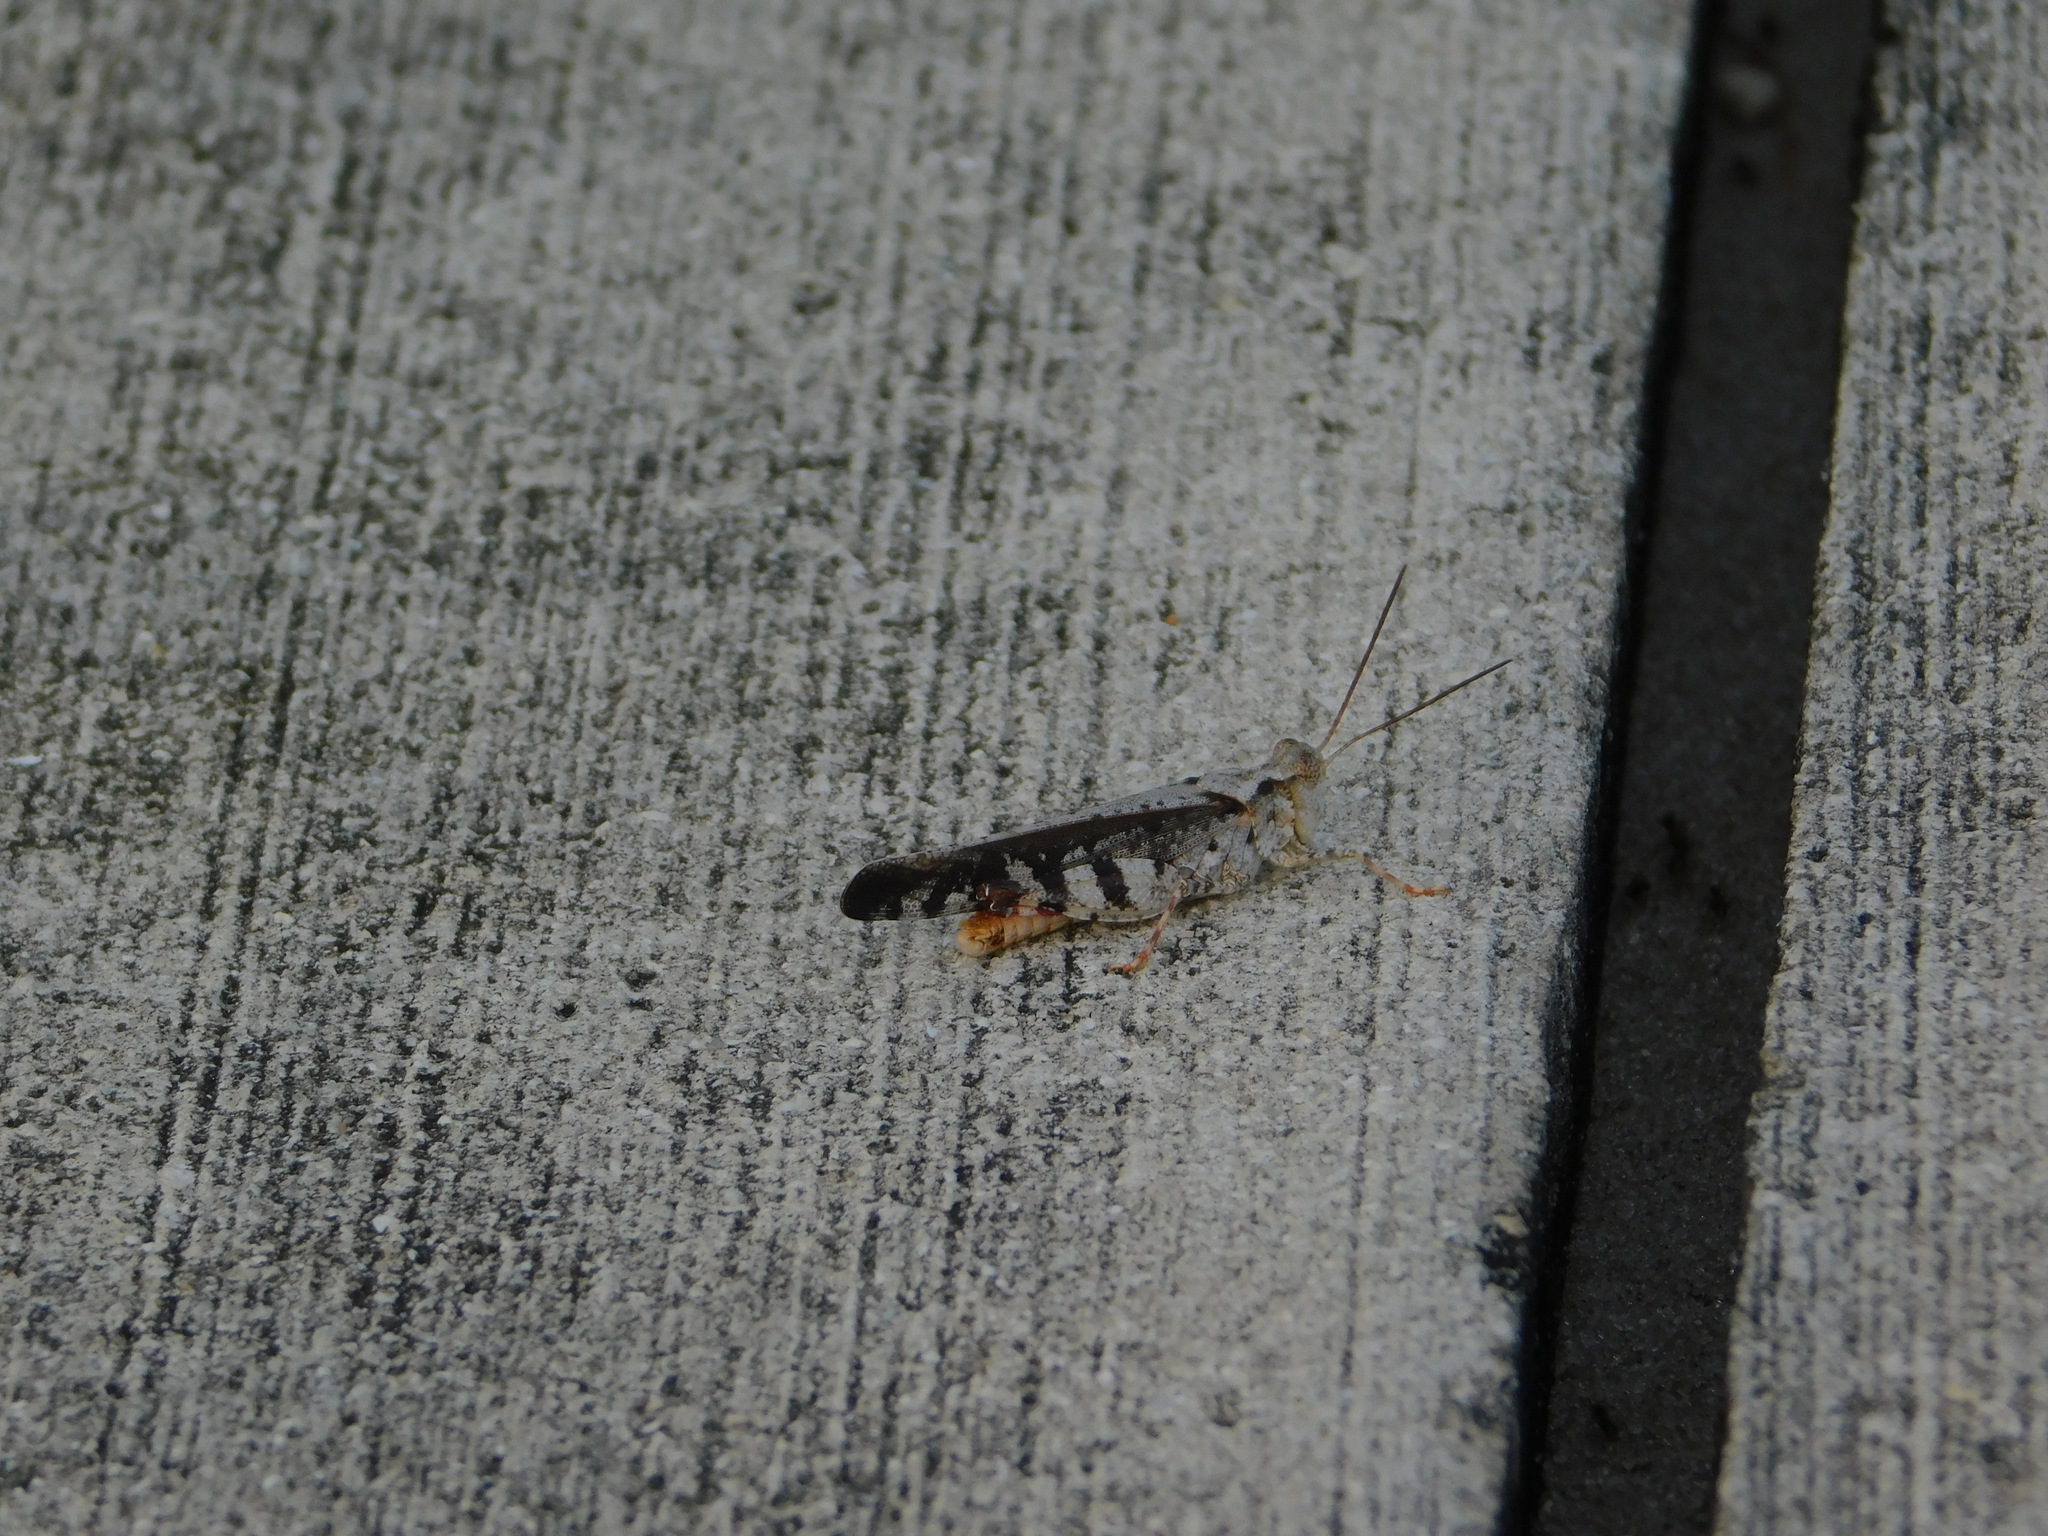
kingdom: Animalia
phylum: Arthropoda
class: Insecta
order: Orthoptera
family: Acrididae
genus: Spharagemon
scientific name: Spharagemon marmoratum
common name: Marbled grasshopper
